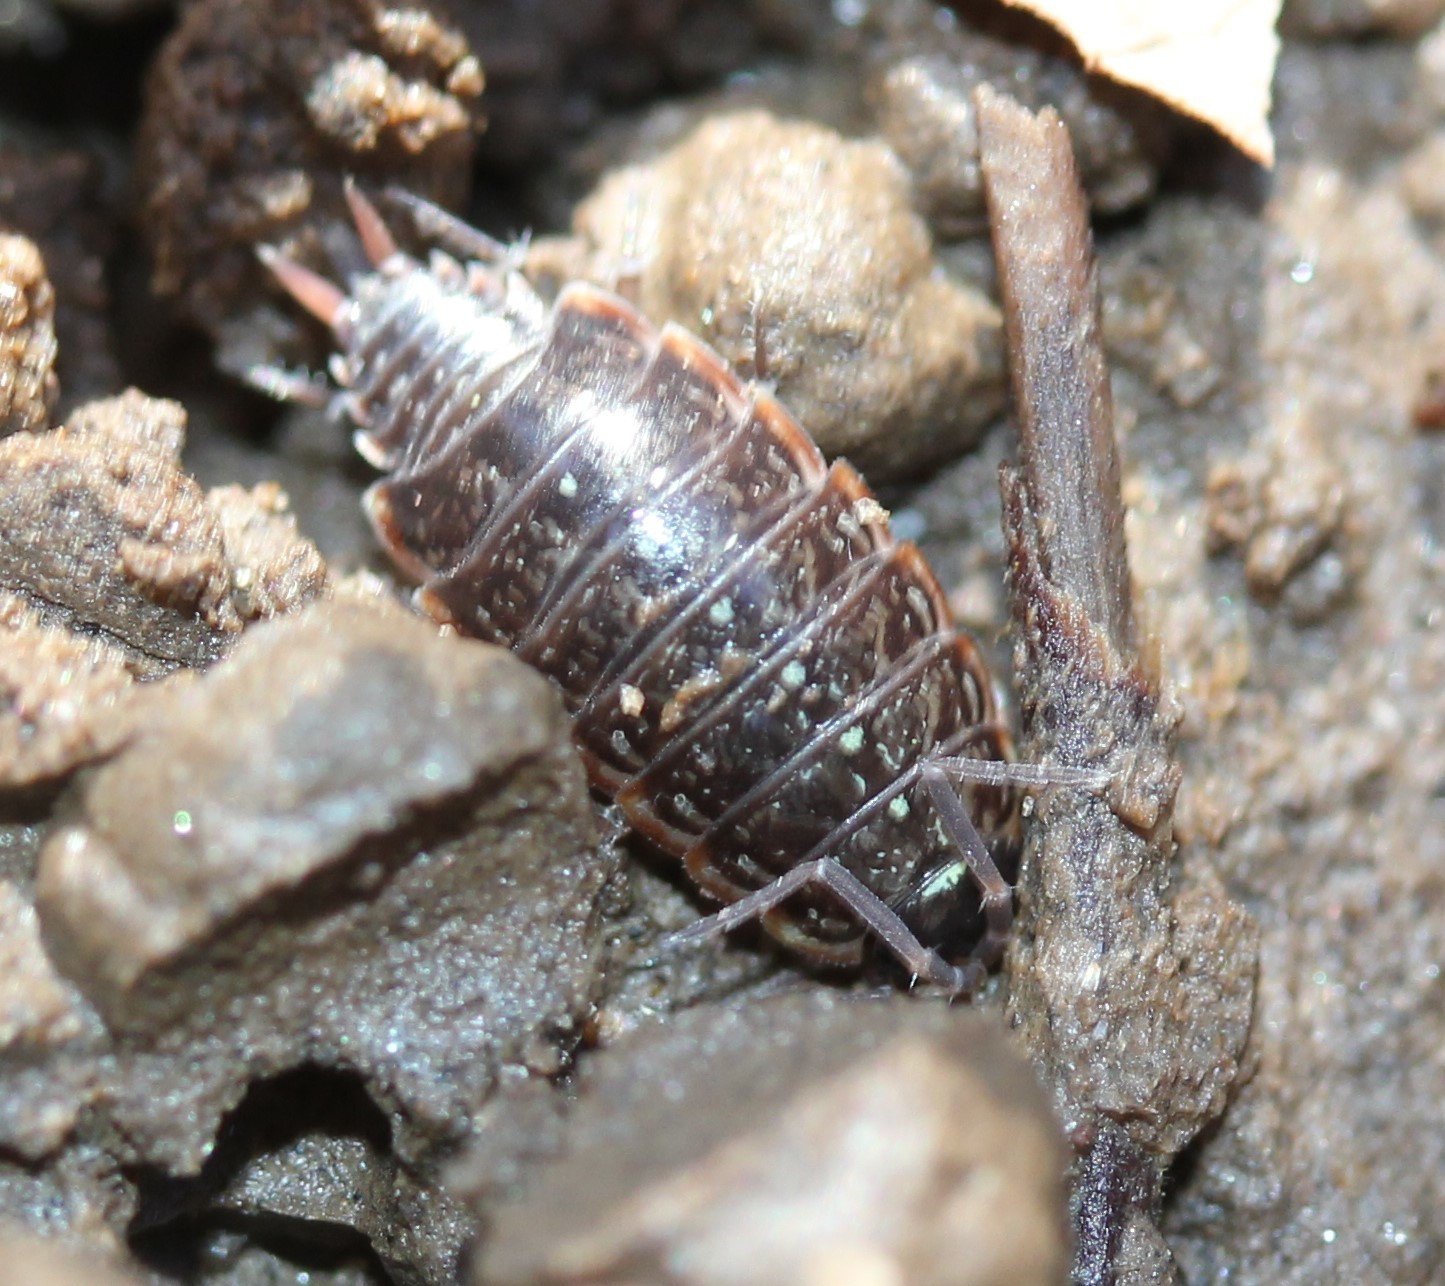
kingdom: Animalia
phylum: Arthropoda
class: Malacostraca
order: Isopoda
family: Philosciidae
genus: Philoscia
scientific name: Philoscia muscorum
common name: Common striped woodlouse
